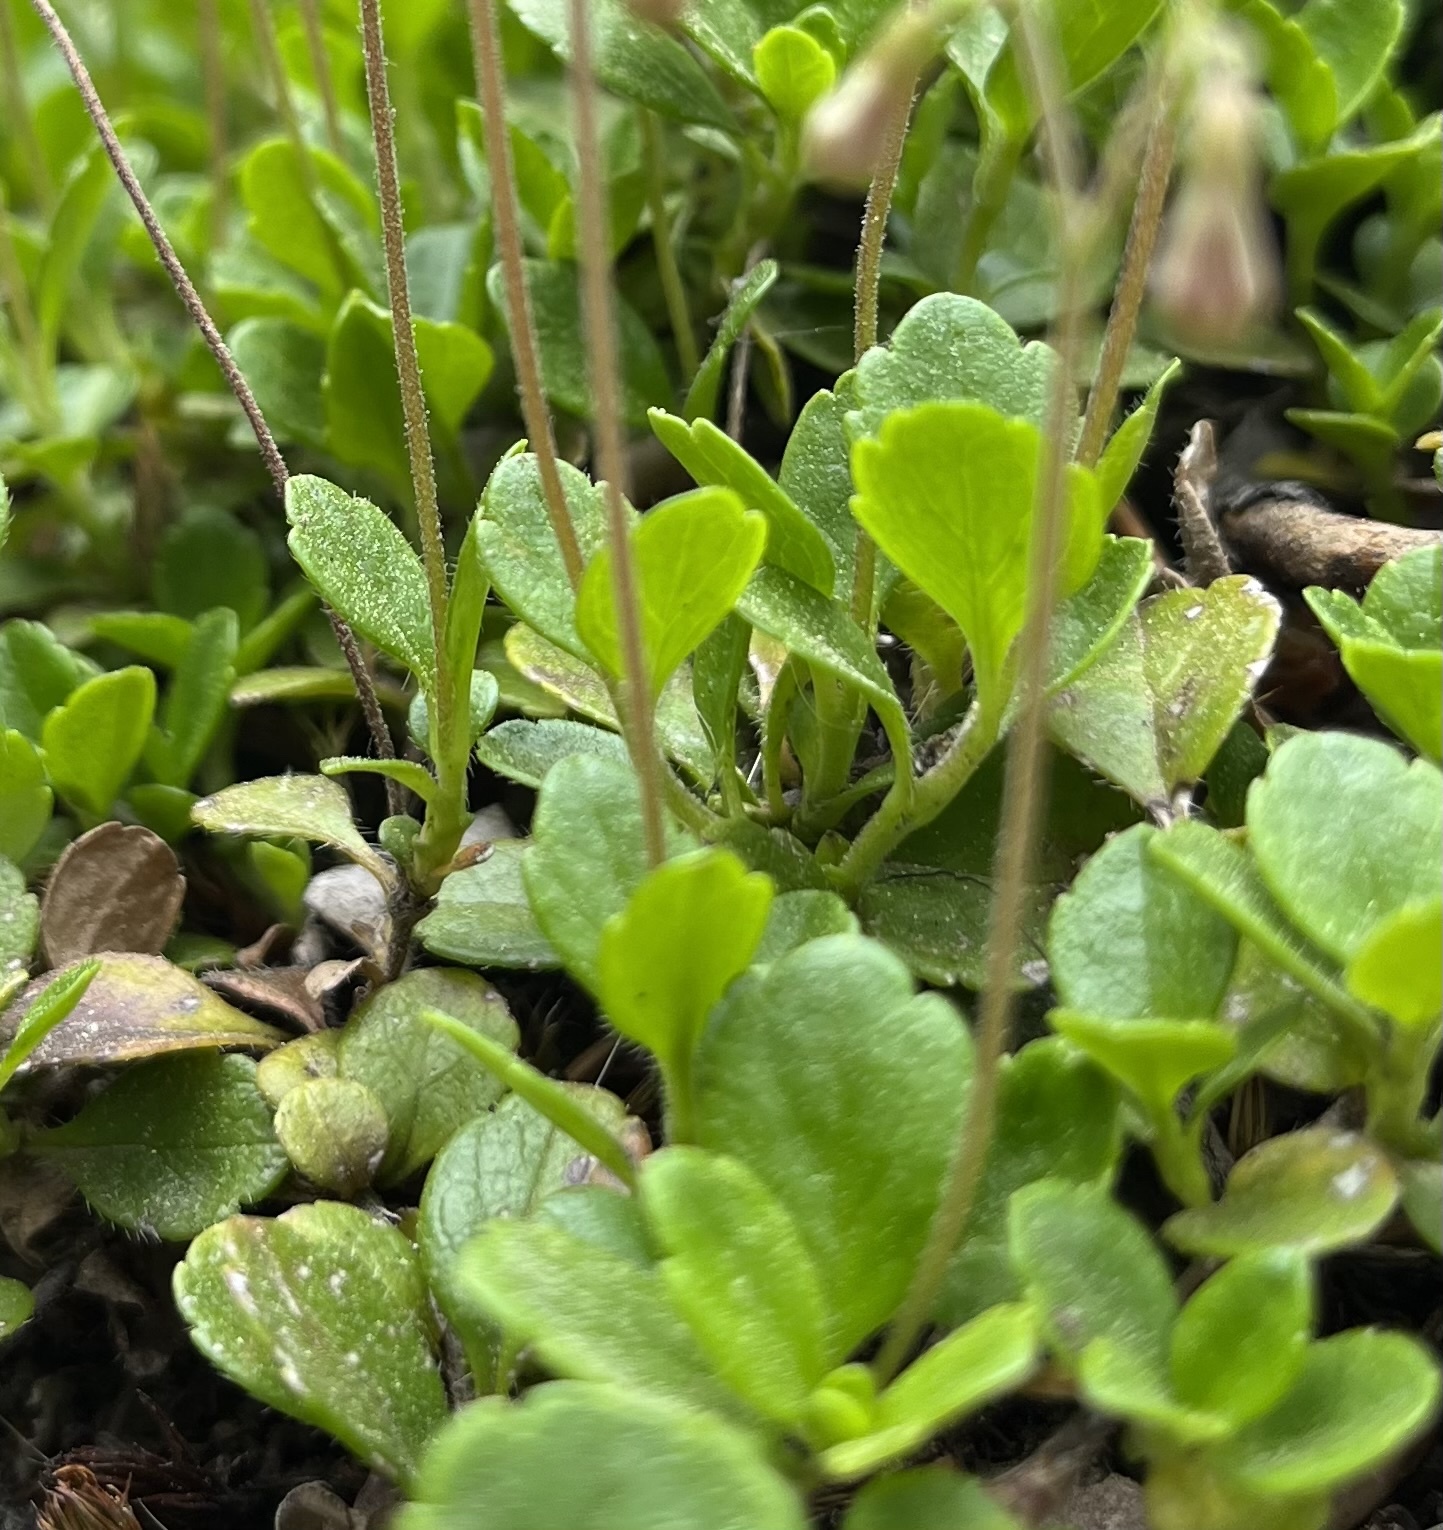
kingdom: Plantae
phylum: Tracheophyta
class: Magnoliopsida
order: Dipsacales
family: Caprifoliaceae
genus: Linnaea
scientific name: Linnaea borealis
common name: Twinflower
